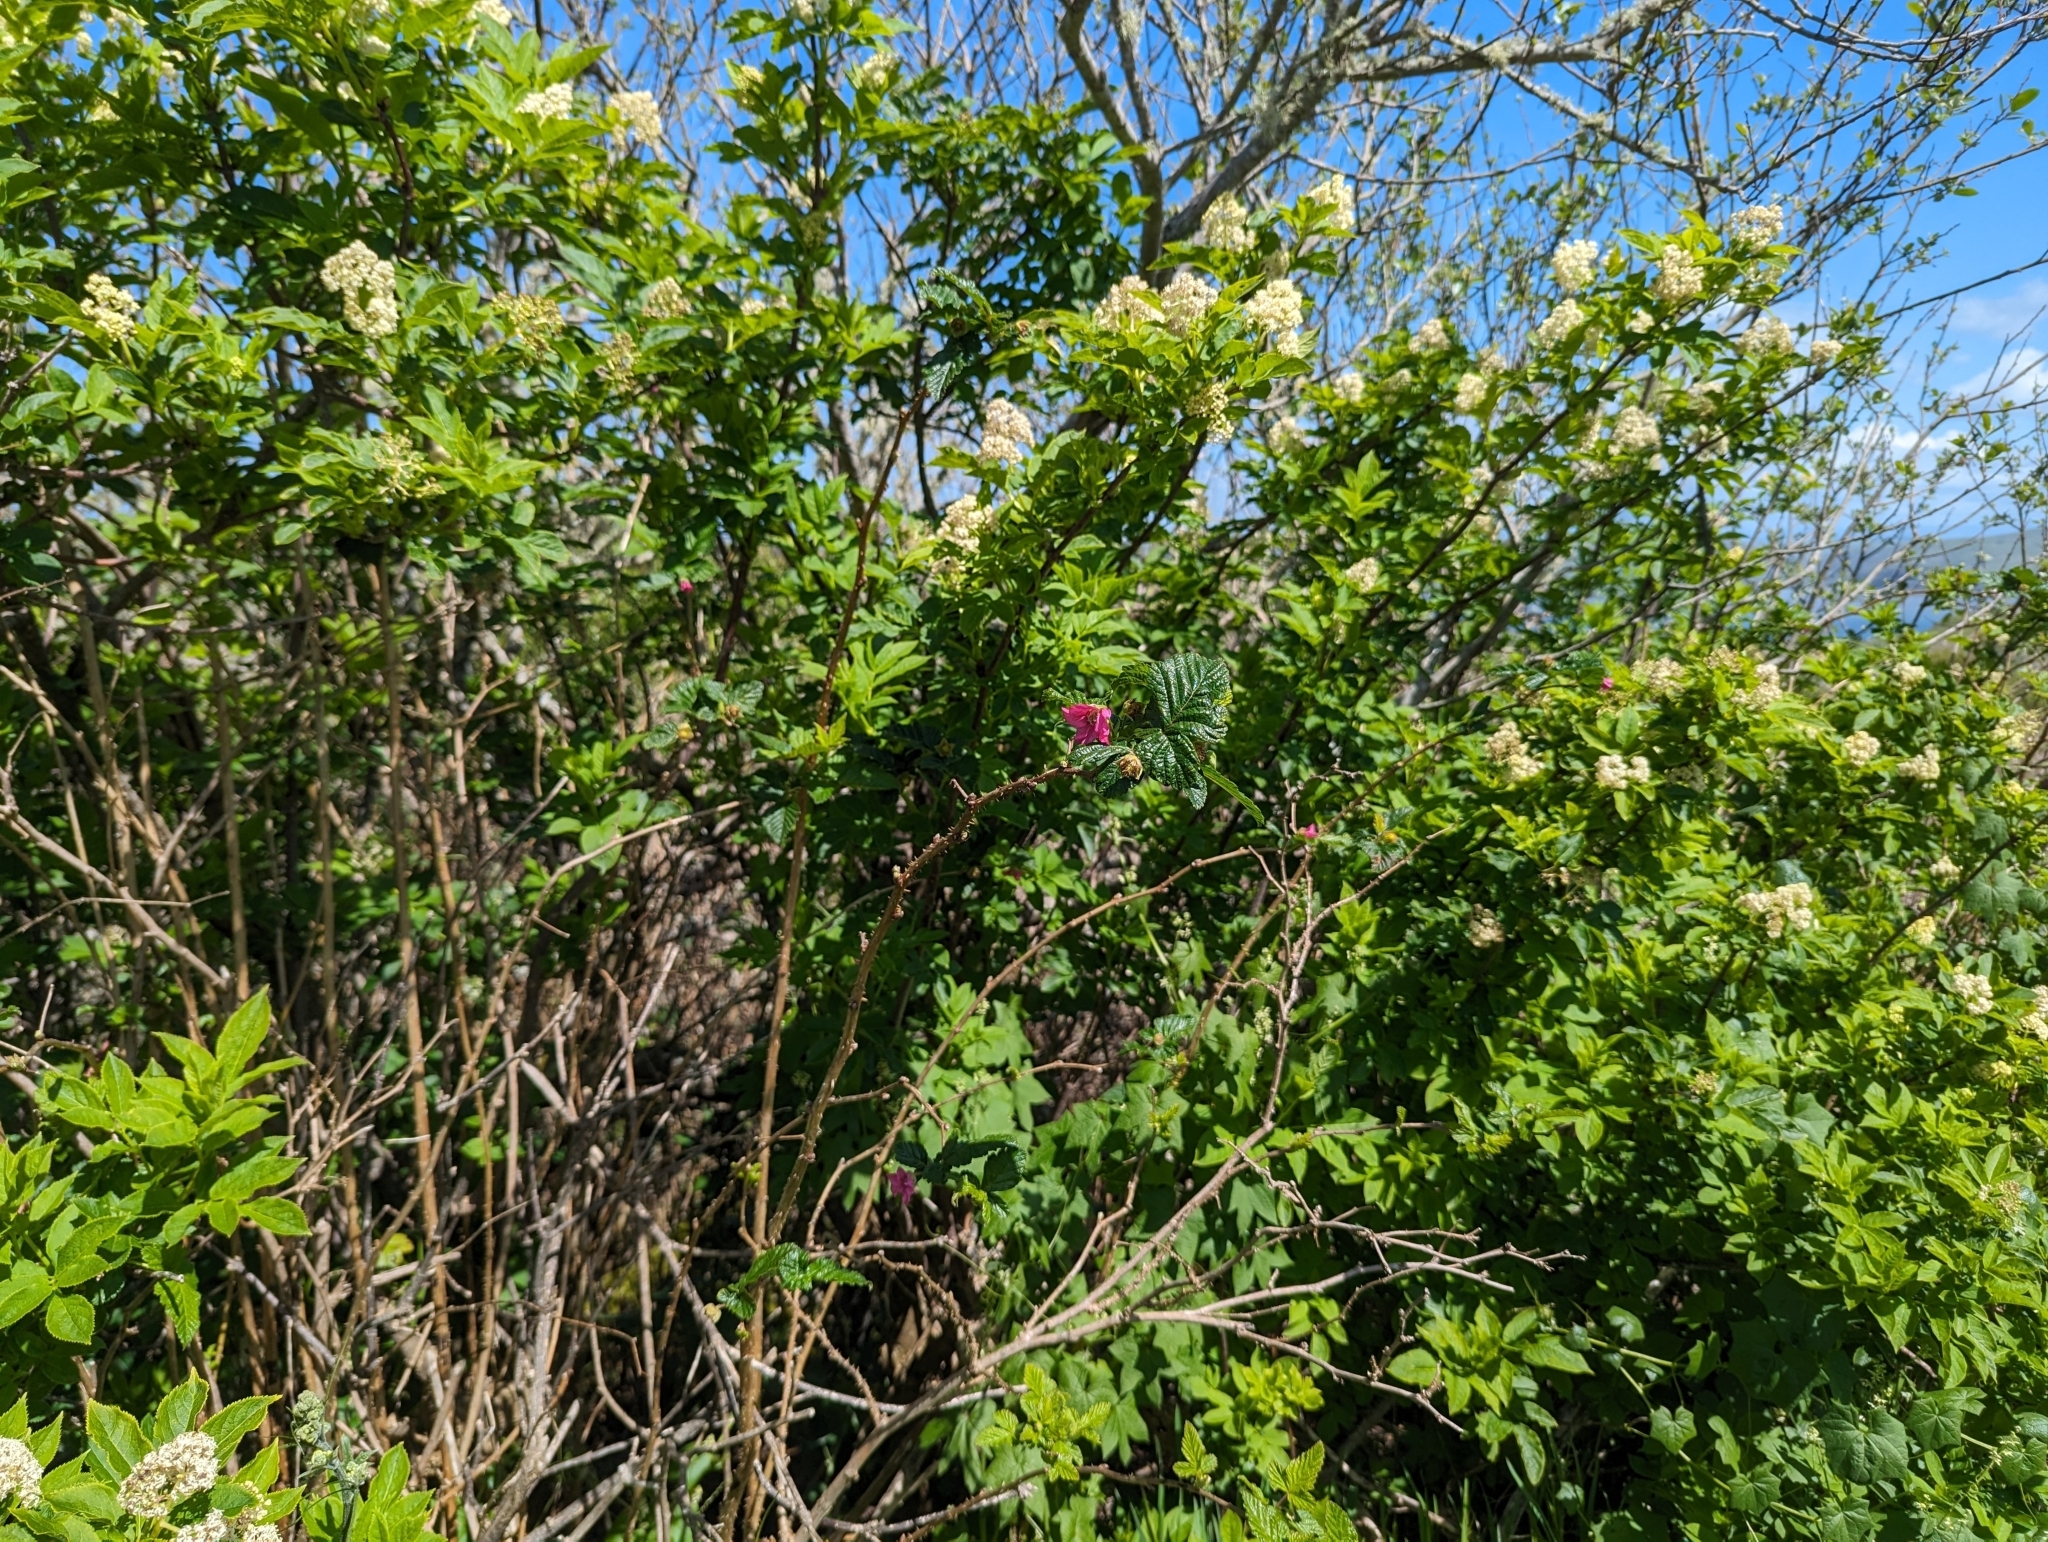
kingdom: Plantae
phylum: Tracheophyta
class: Magnoliopsida
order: Rosales
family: Rosaceae
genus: Rubus
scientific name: Rubus spectabilis
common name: Salmonberry
